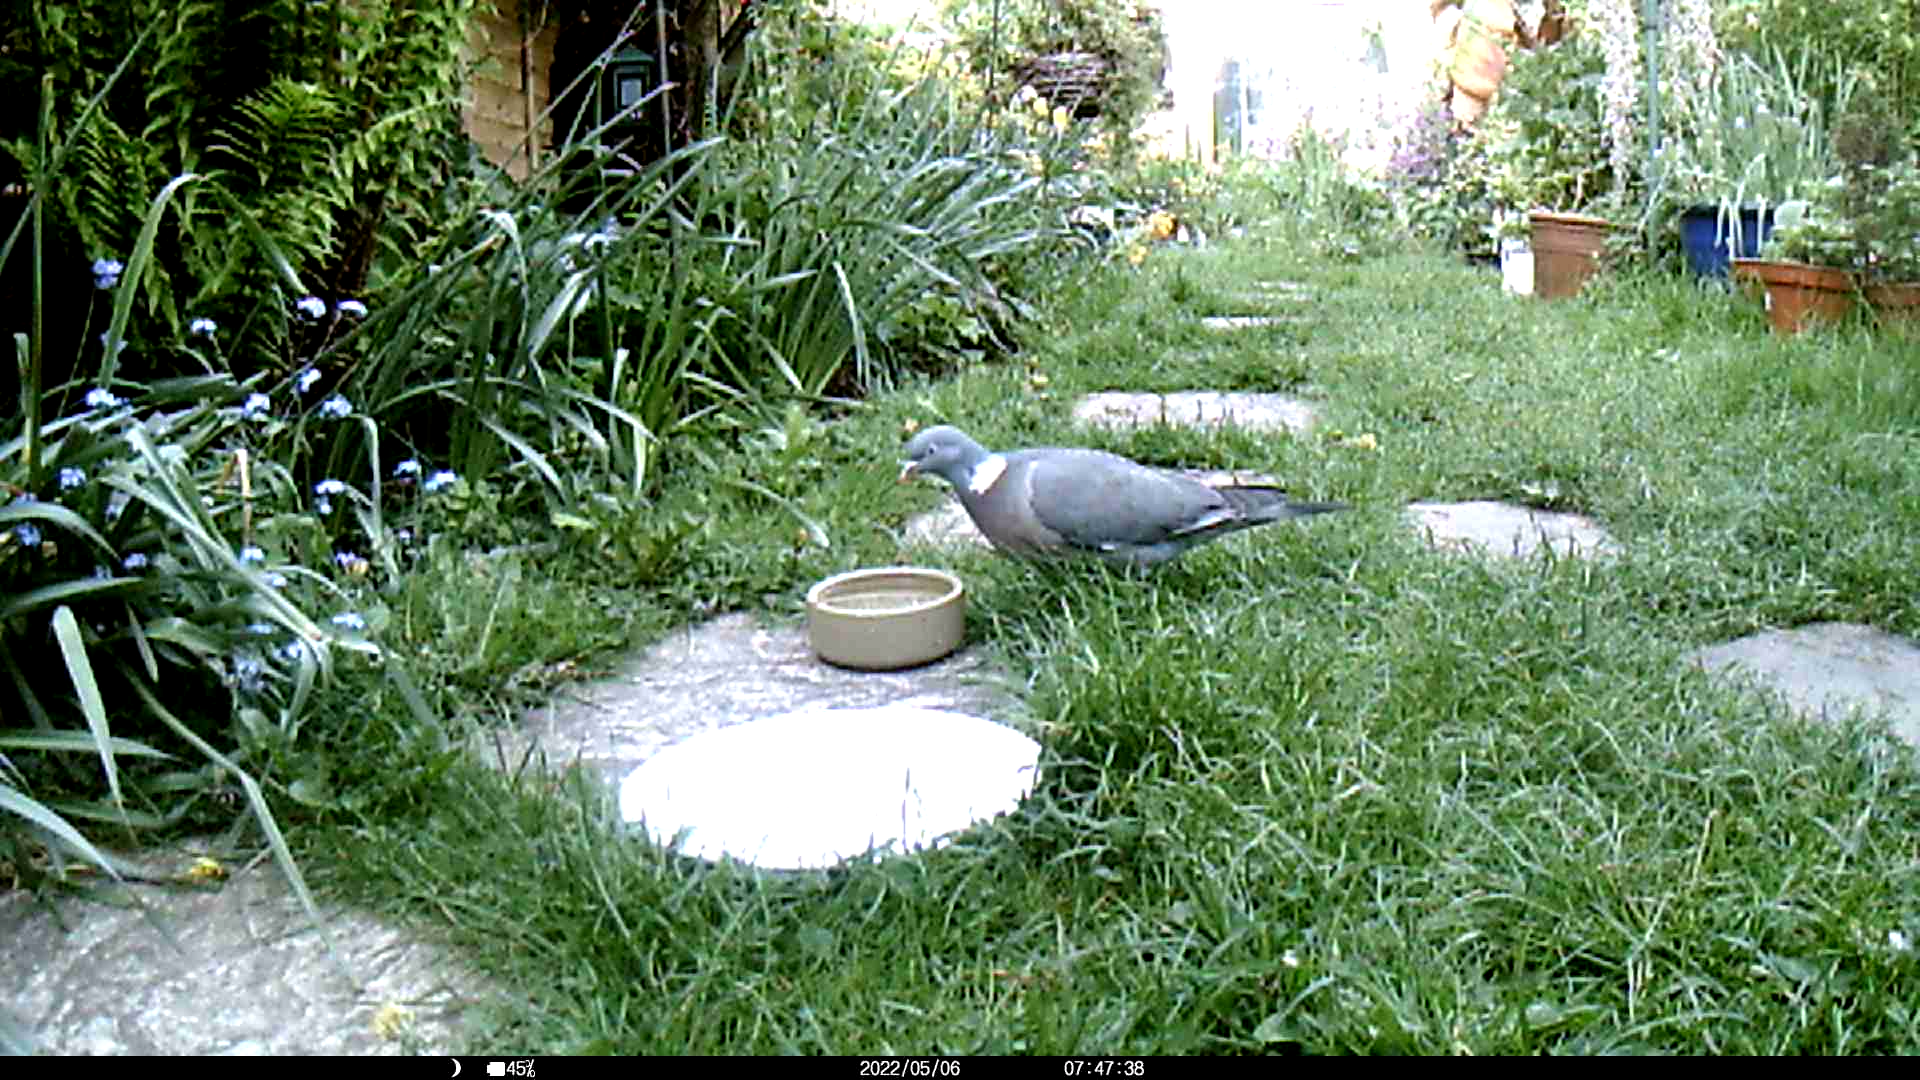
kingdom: Animalia
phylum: Chordata
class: Aves
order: Columbiformes
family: Columbidae
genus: Columba
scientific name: Columba palumbus
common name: Common wood pigeon
